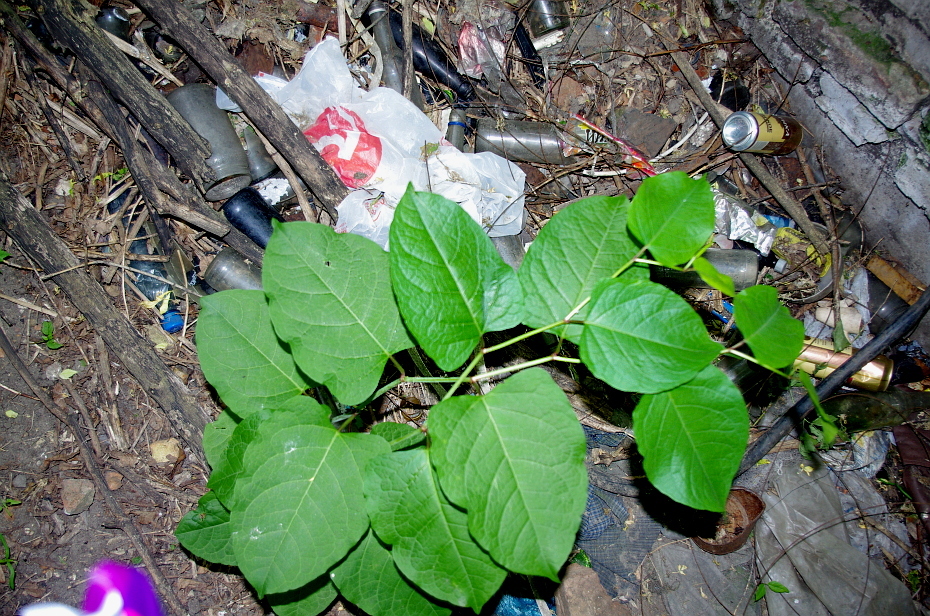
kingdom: Plantae
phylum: Tracheophyta
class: Magnoliopsida
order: Caryophyllales
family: Polygonaceae
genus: Reynoutria
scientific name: Reynoutria bohemica
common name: Bohemian knotweed
